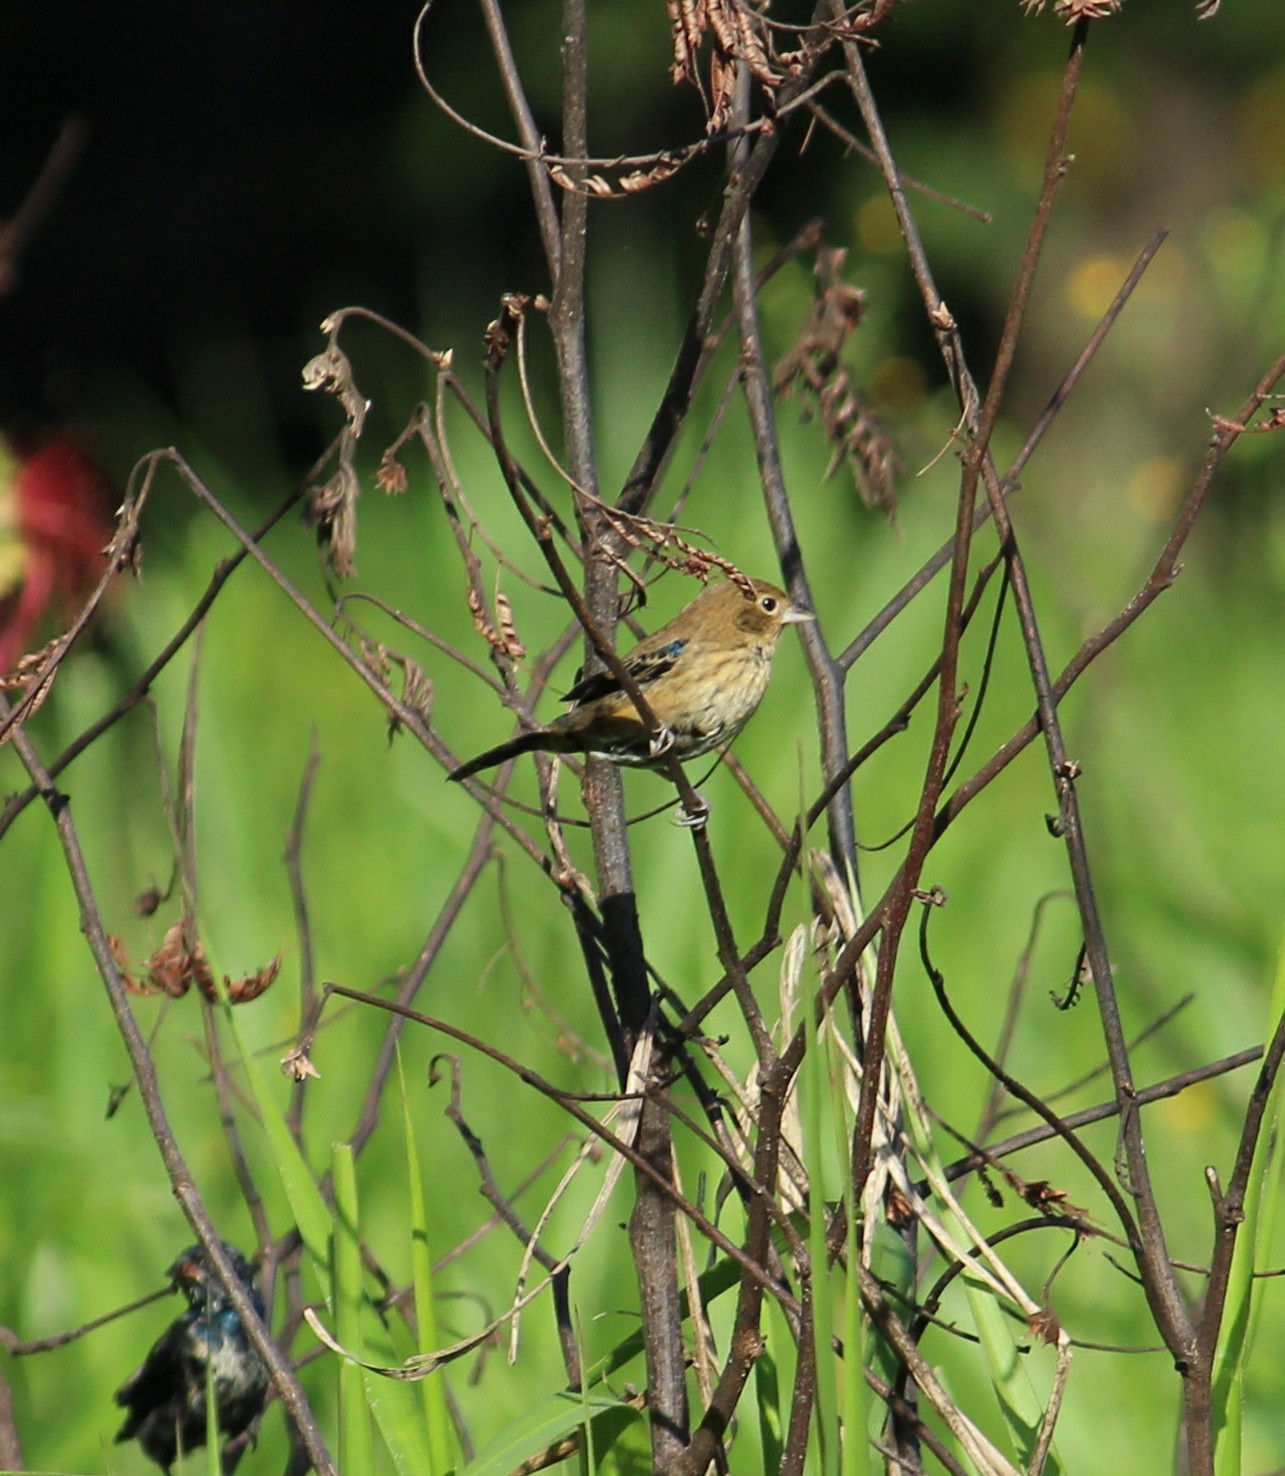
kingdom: Animalia
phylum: Chordata
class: Aves
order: Passeriformes
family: Thraupidae
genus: Volatinia
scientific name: Volatinia jacarina
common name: Blue-black grassquit
